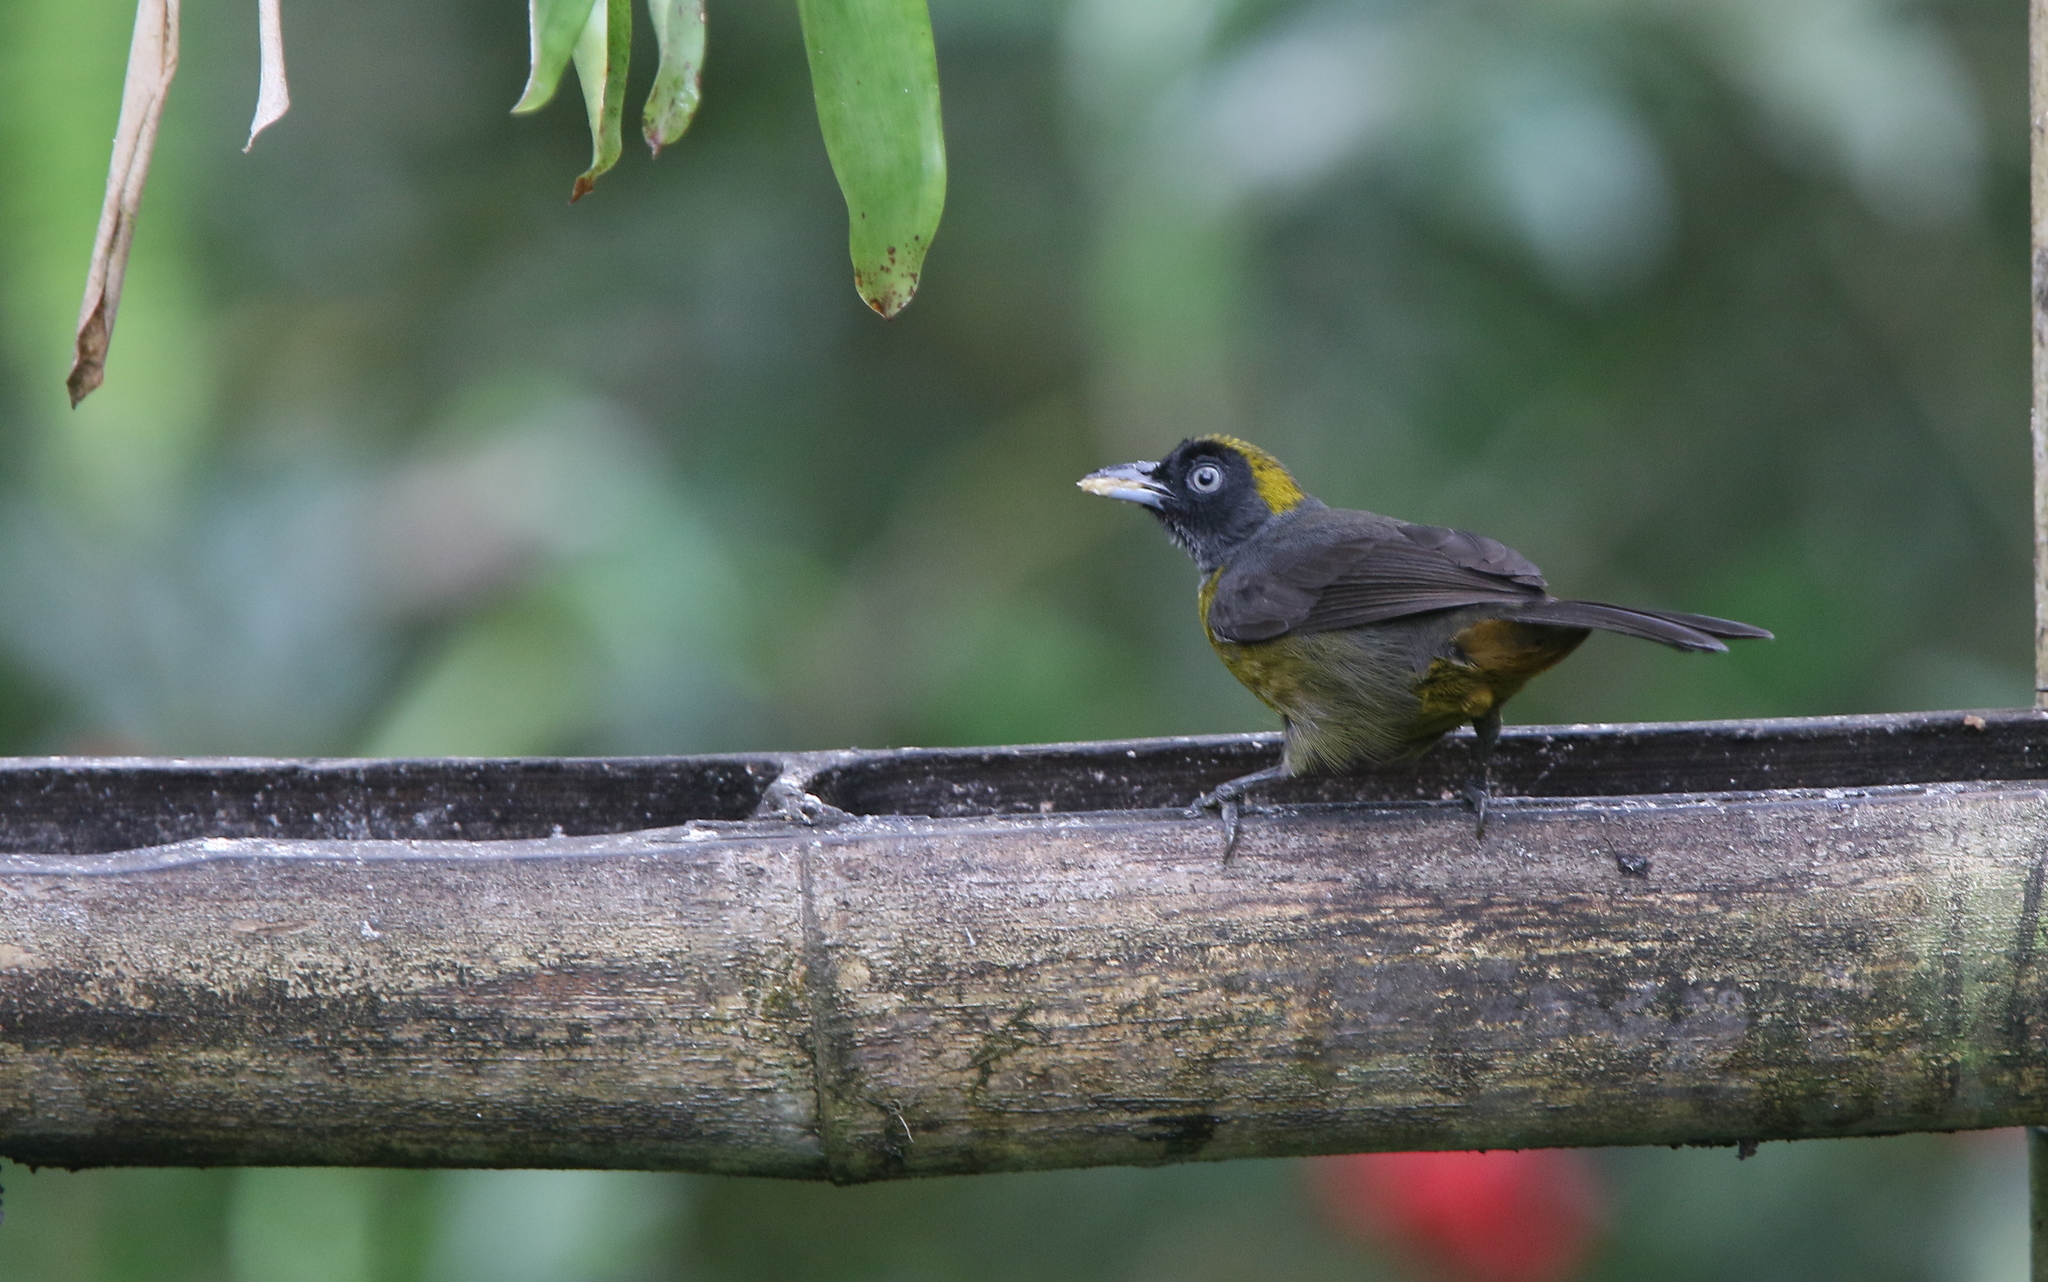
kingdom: Animalia
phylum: Chordata
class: Aves
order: Passeriformes
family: Mitrospingidae
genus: Mitrospingus
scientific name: Mitrospingus cassinii
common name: Dusky-faced tanager
